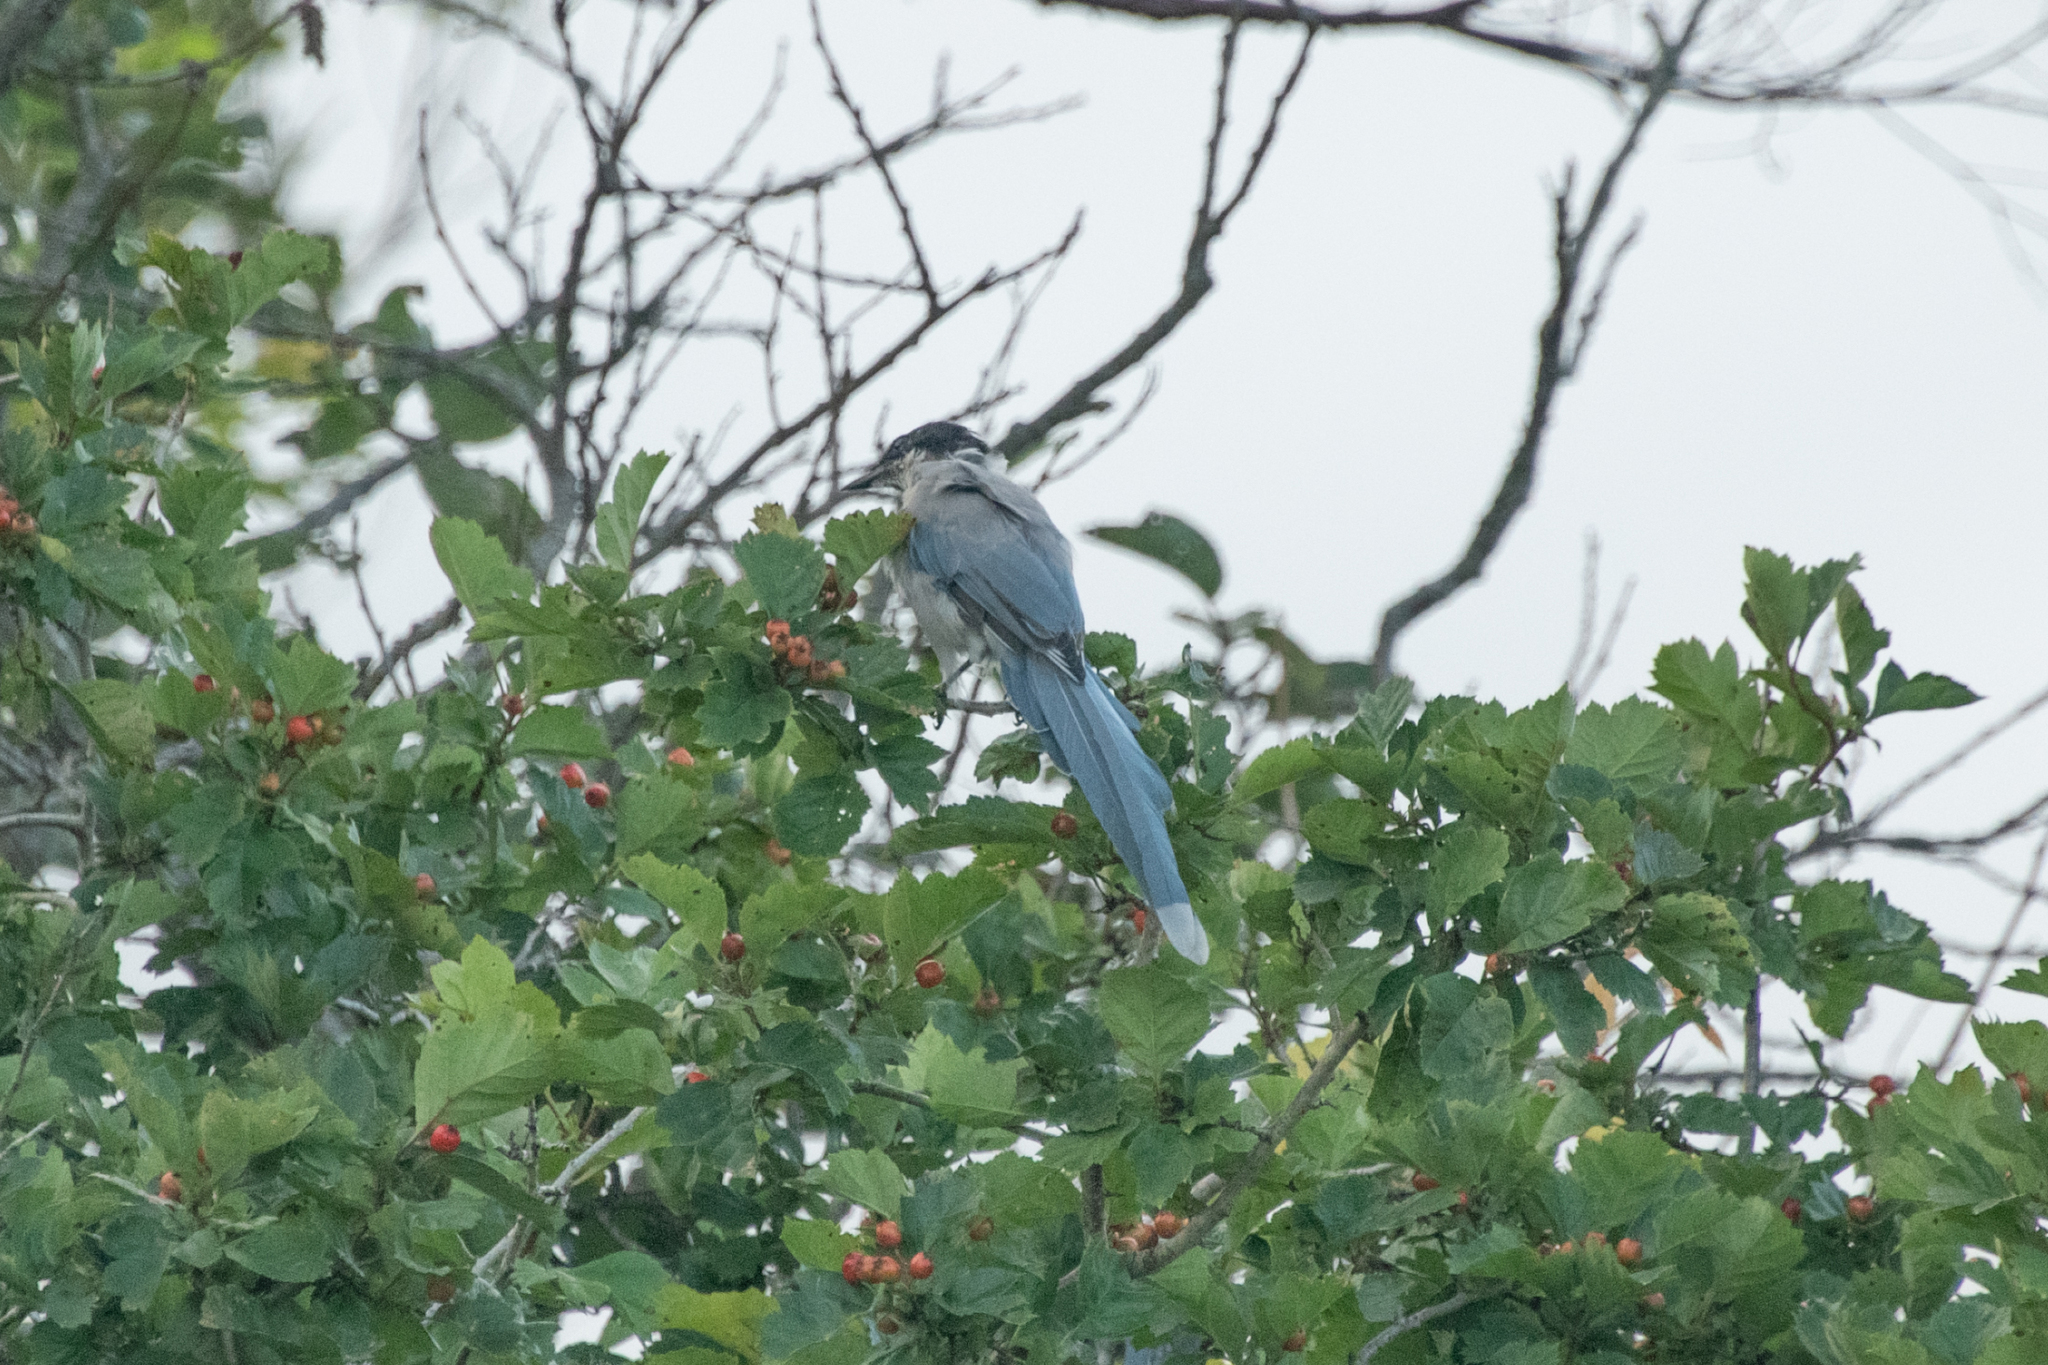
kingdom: Animalia
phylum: Chordata
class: Aves
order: Passeriformes
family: Corvidae
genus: Cyanopica
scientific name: Cyanopica cyanus
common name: Azure-winged magpie
